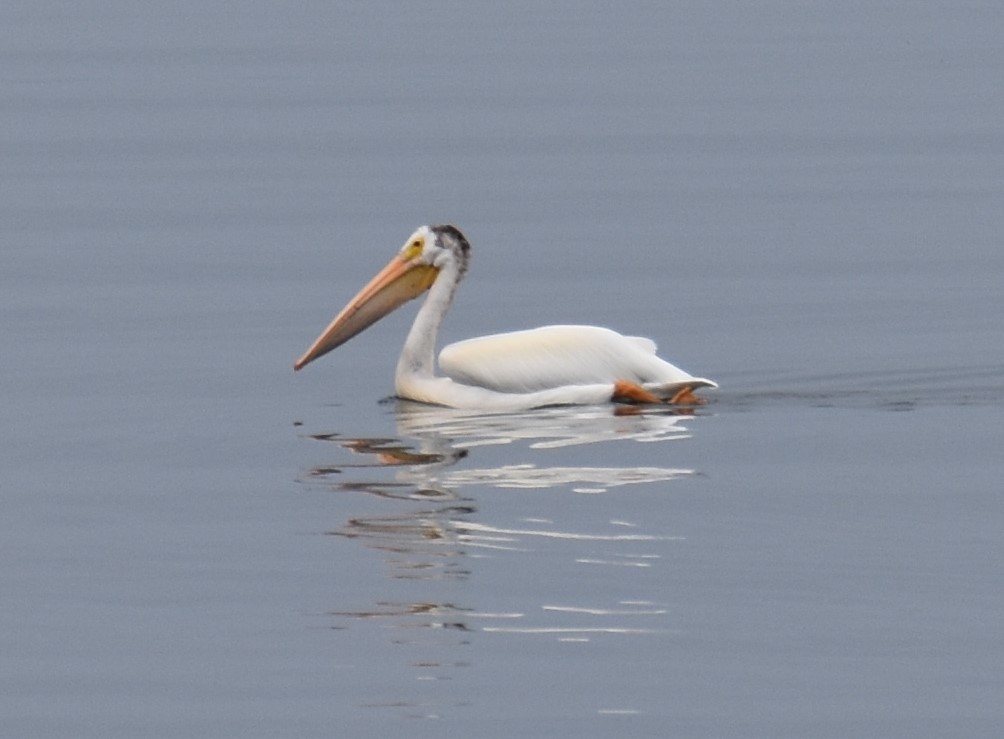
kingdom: Animalia
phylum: Chordata
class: Aves
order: Pelecaniformes
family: Pelecanidae
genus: Pelecanus
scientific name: Pelecanus erythrorhynchos
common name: American white pelican
